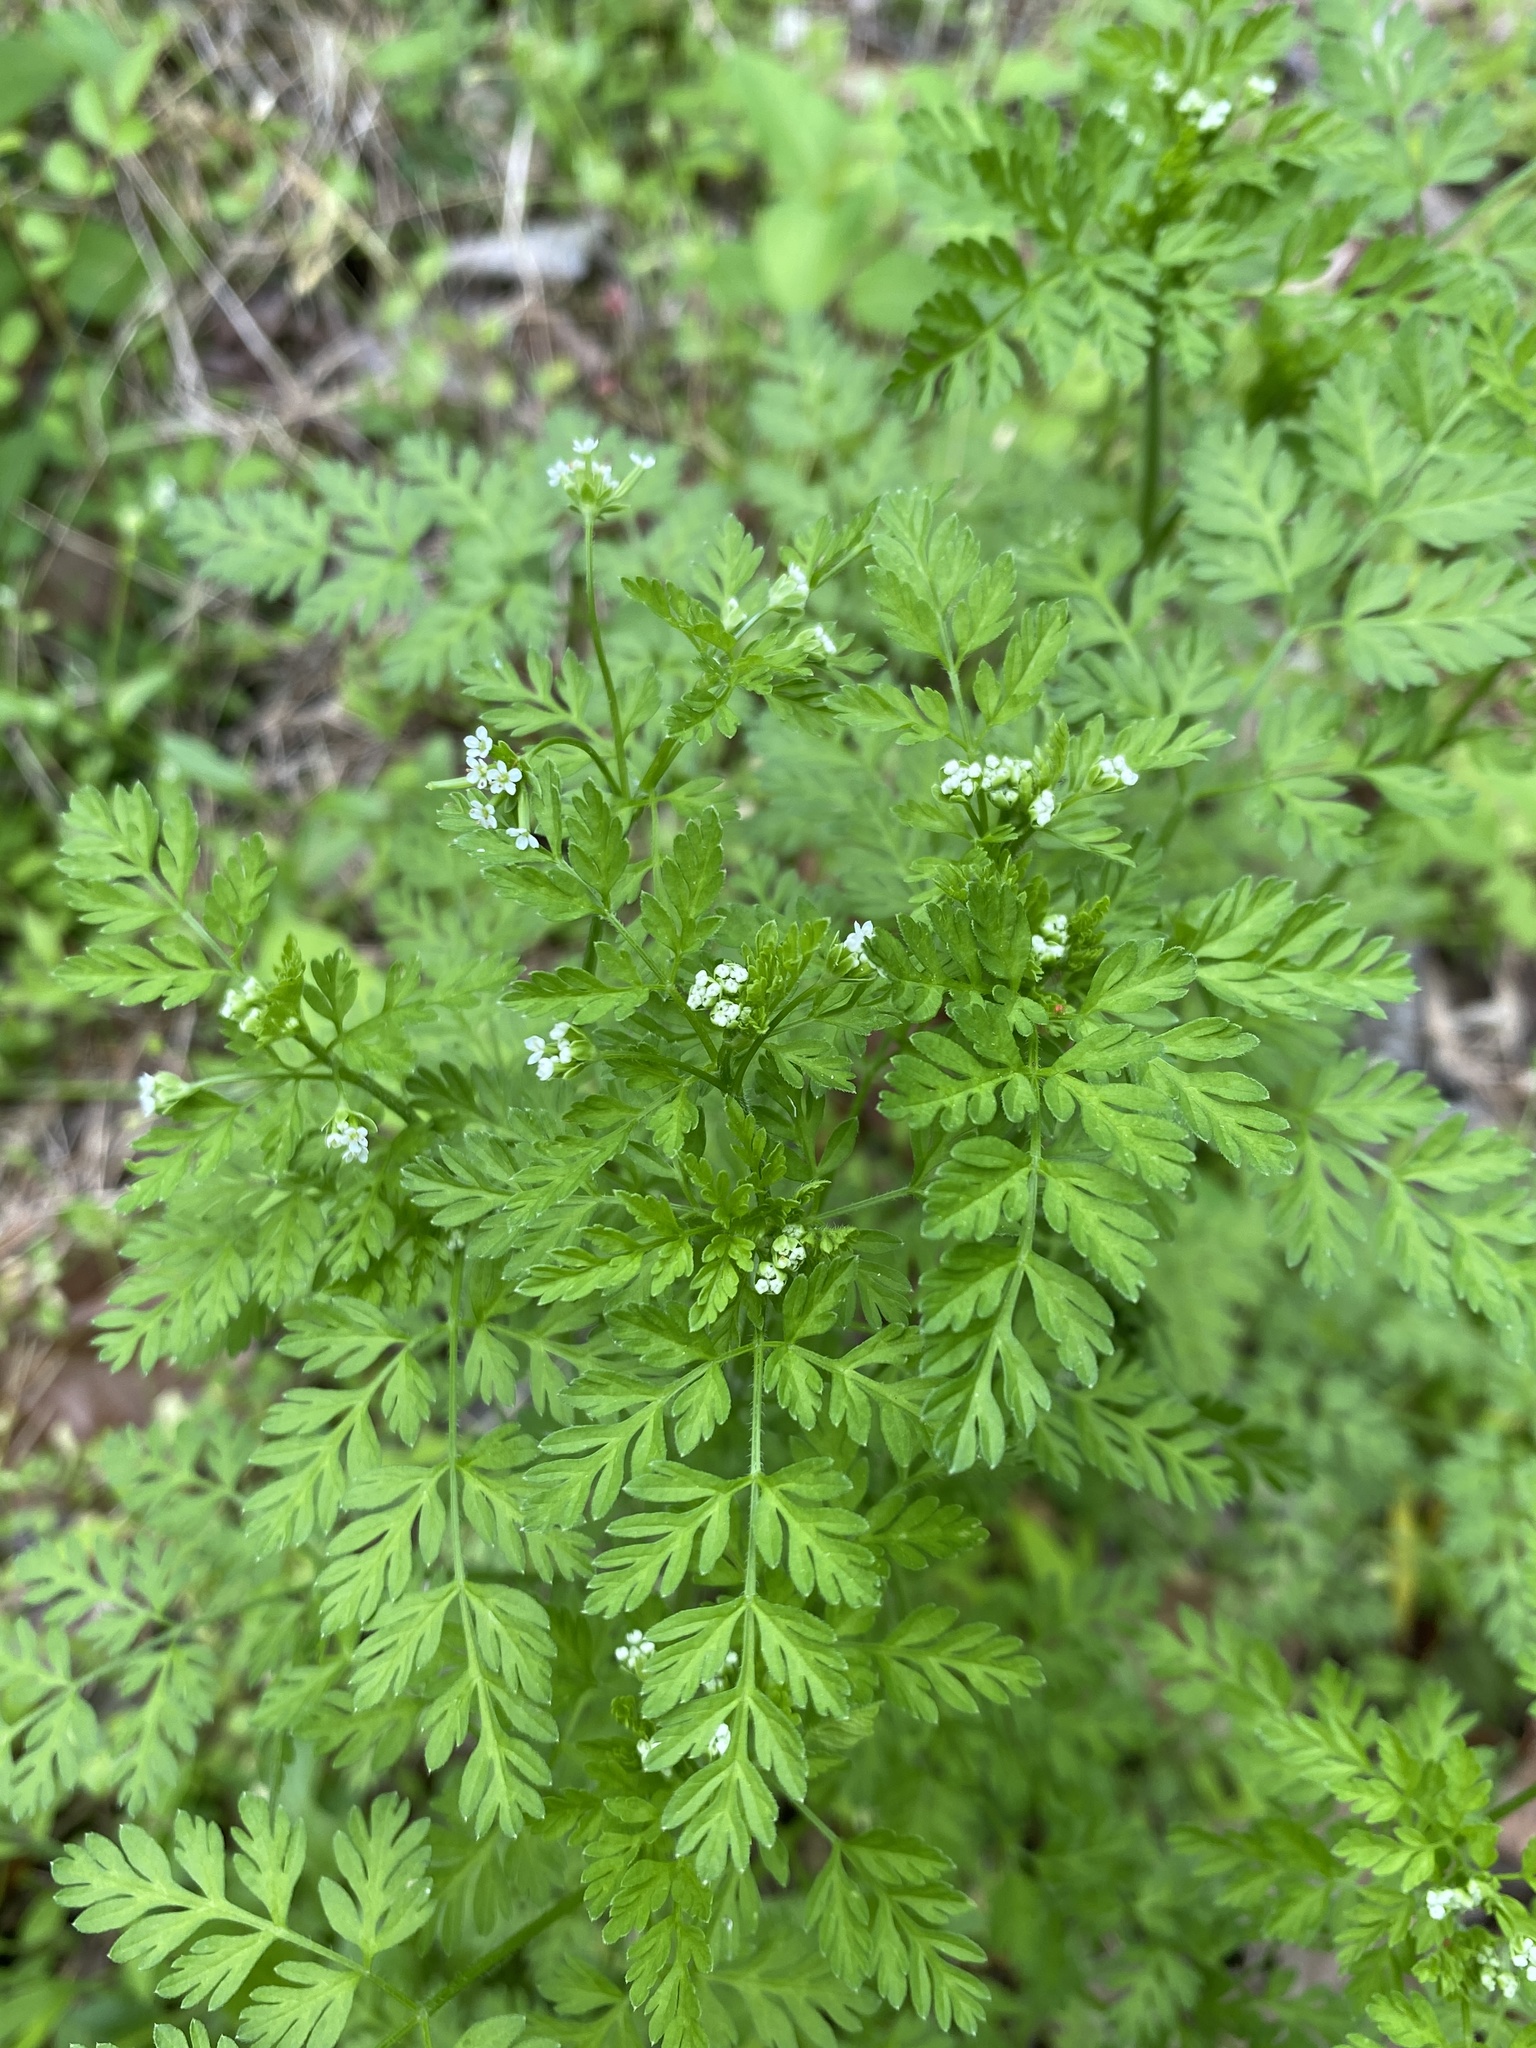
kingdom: Plantae
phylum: Tracheophyta
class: Magnoliopsida
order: Apiales
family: Apiaceae
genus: Chaerophyllum
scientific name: Chaerophyllum tainturieri
